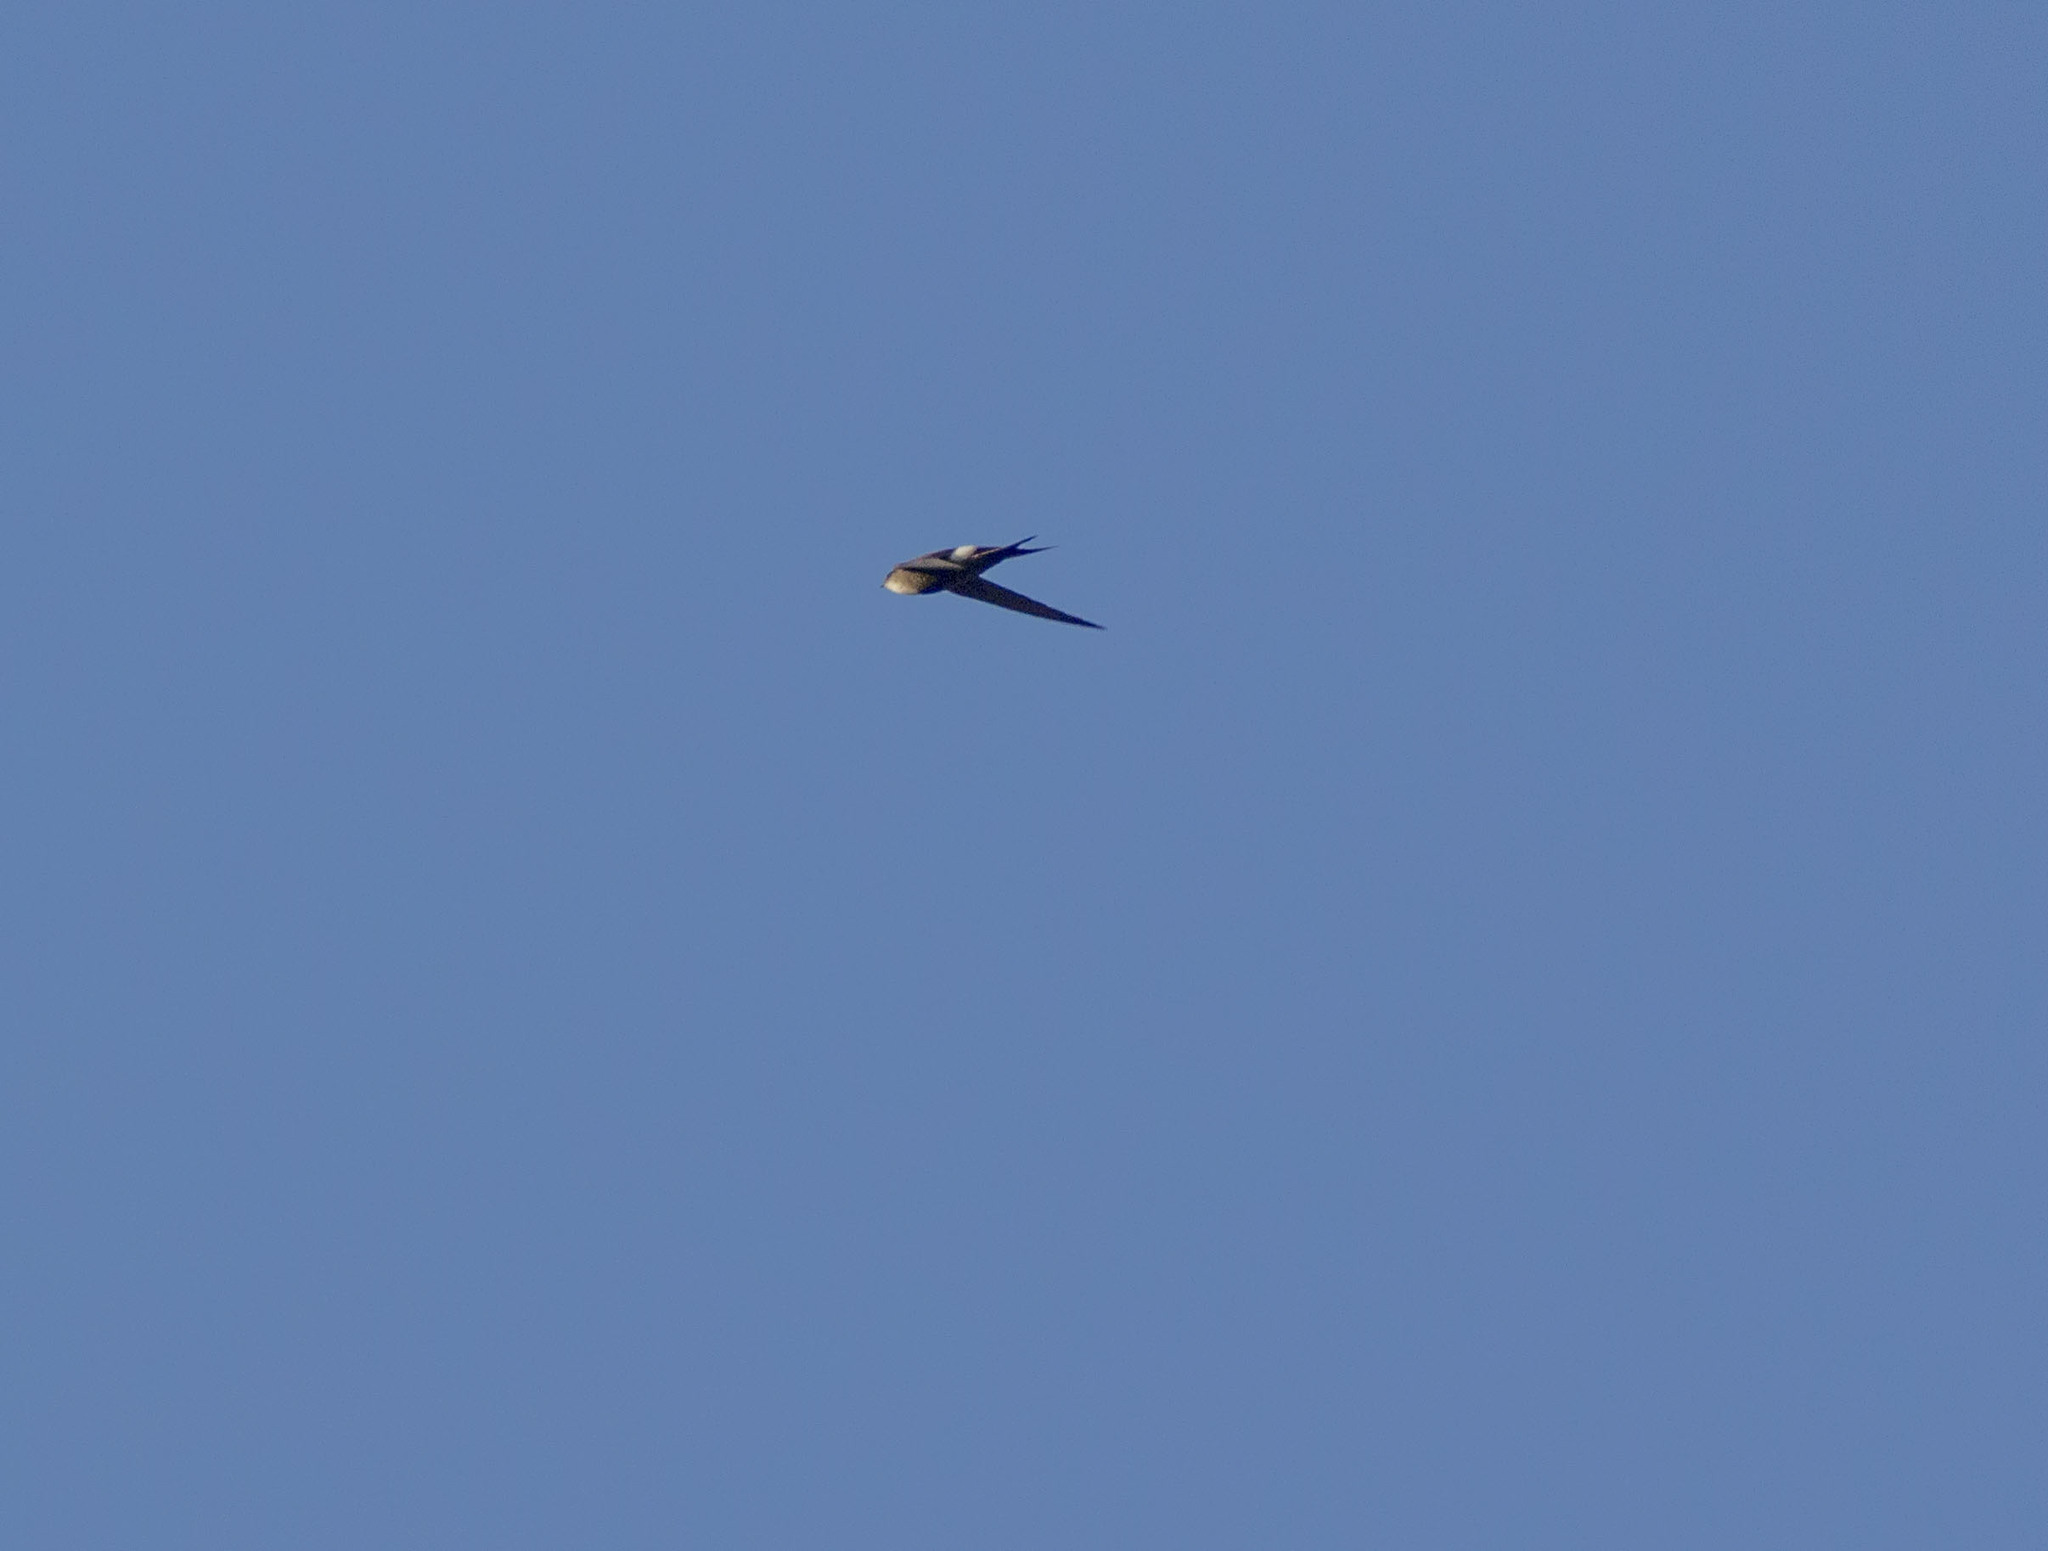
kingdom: Animalia
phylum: Chordata
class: Aves
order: Apodiformes
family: Apodidae
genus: Apus
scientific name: Apus pacificus
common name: Pacific swift
